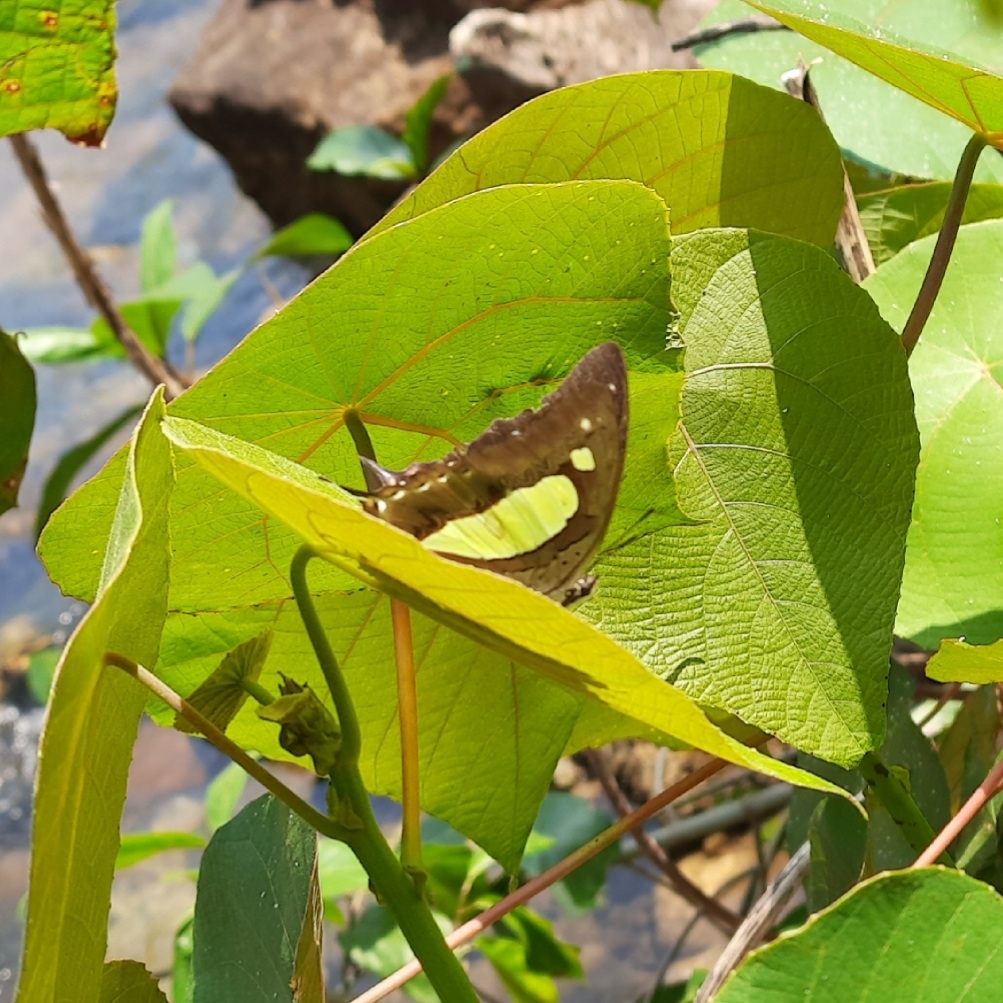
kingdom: Animalia
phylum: Arthropoda
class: Insecta
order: Lepidoptera
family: Nymphalidae
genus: Polyura
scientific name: Polyura
